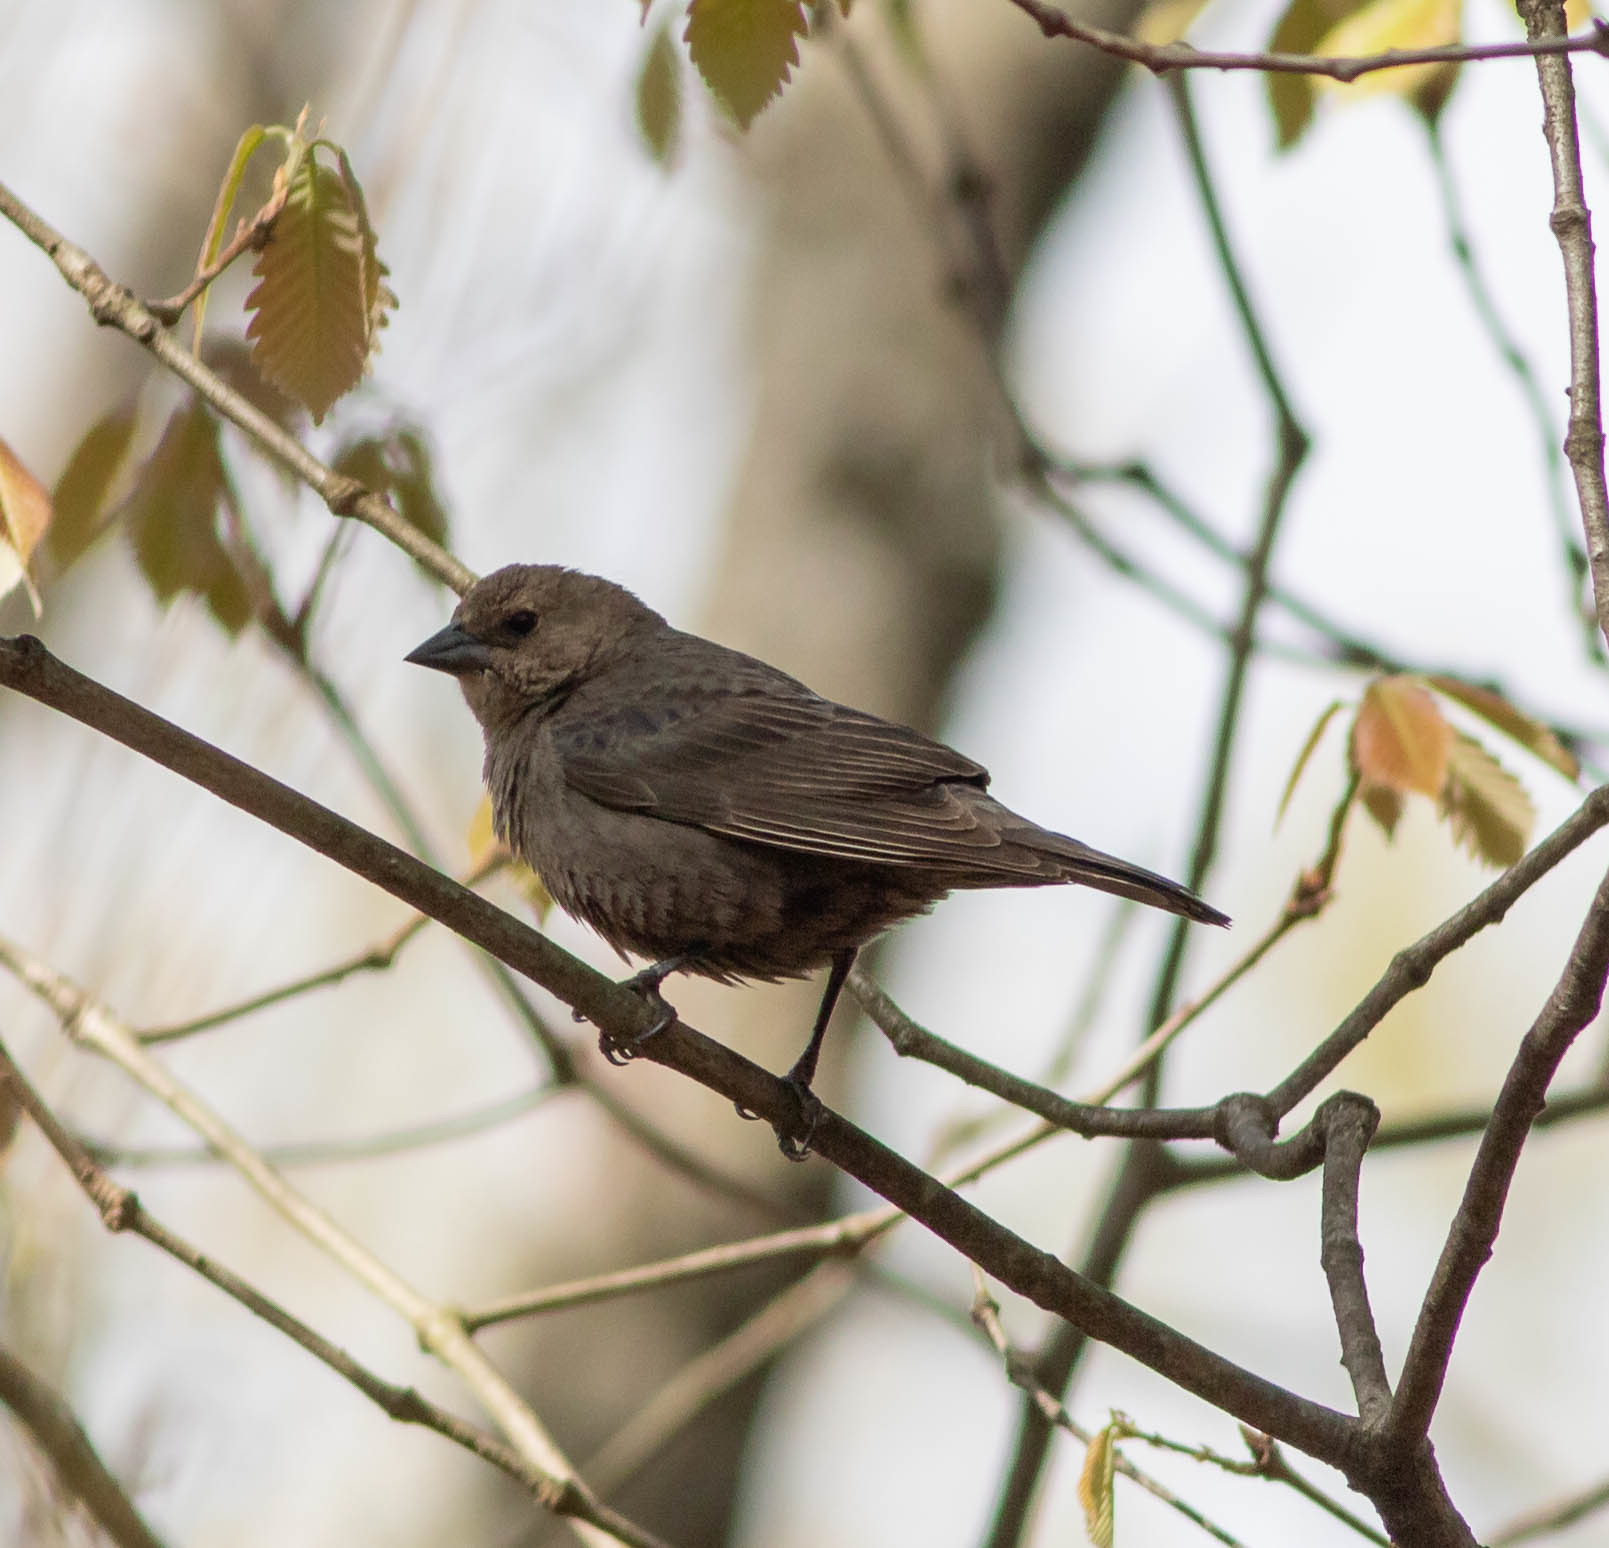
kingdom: Animalia
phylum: Chordata
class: Aves
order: Passeriformes
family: Icteridae
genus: Molothrus
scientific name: Molothrus ater
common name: Brown-headed cowbird
